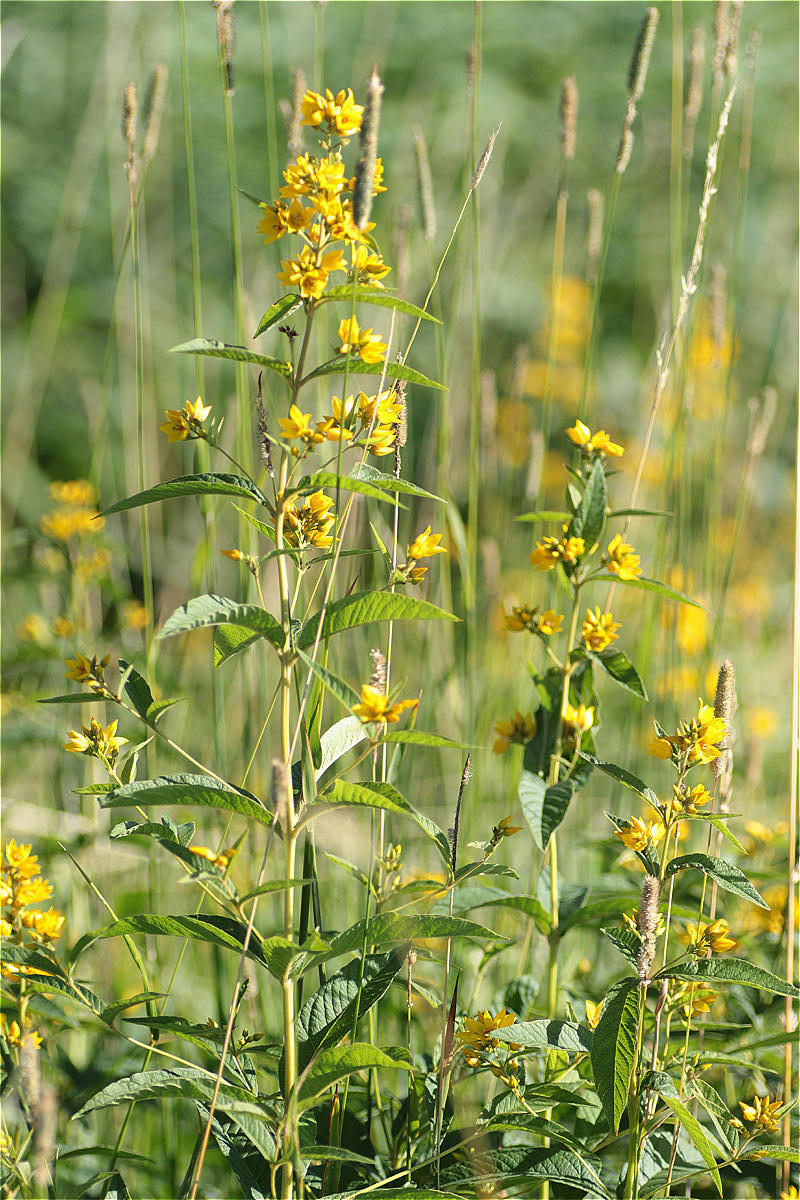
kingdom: Plantae
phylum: Tracheophyta
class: Magnoliopsida
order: Ericales
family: Primulaceae
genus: Lysimachia
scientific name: Lysimachia vulgaris
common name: Yellow loosestrife
